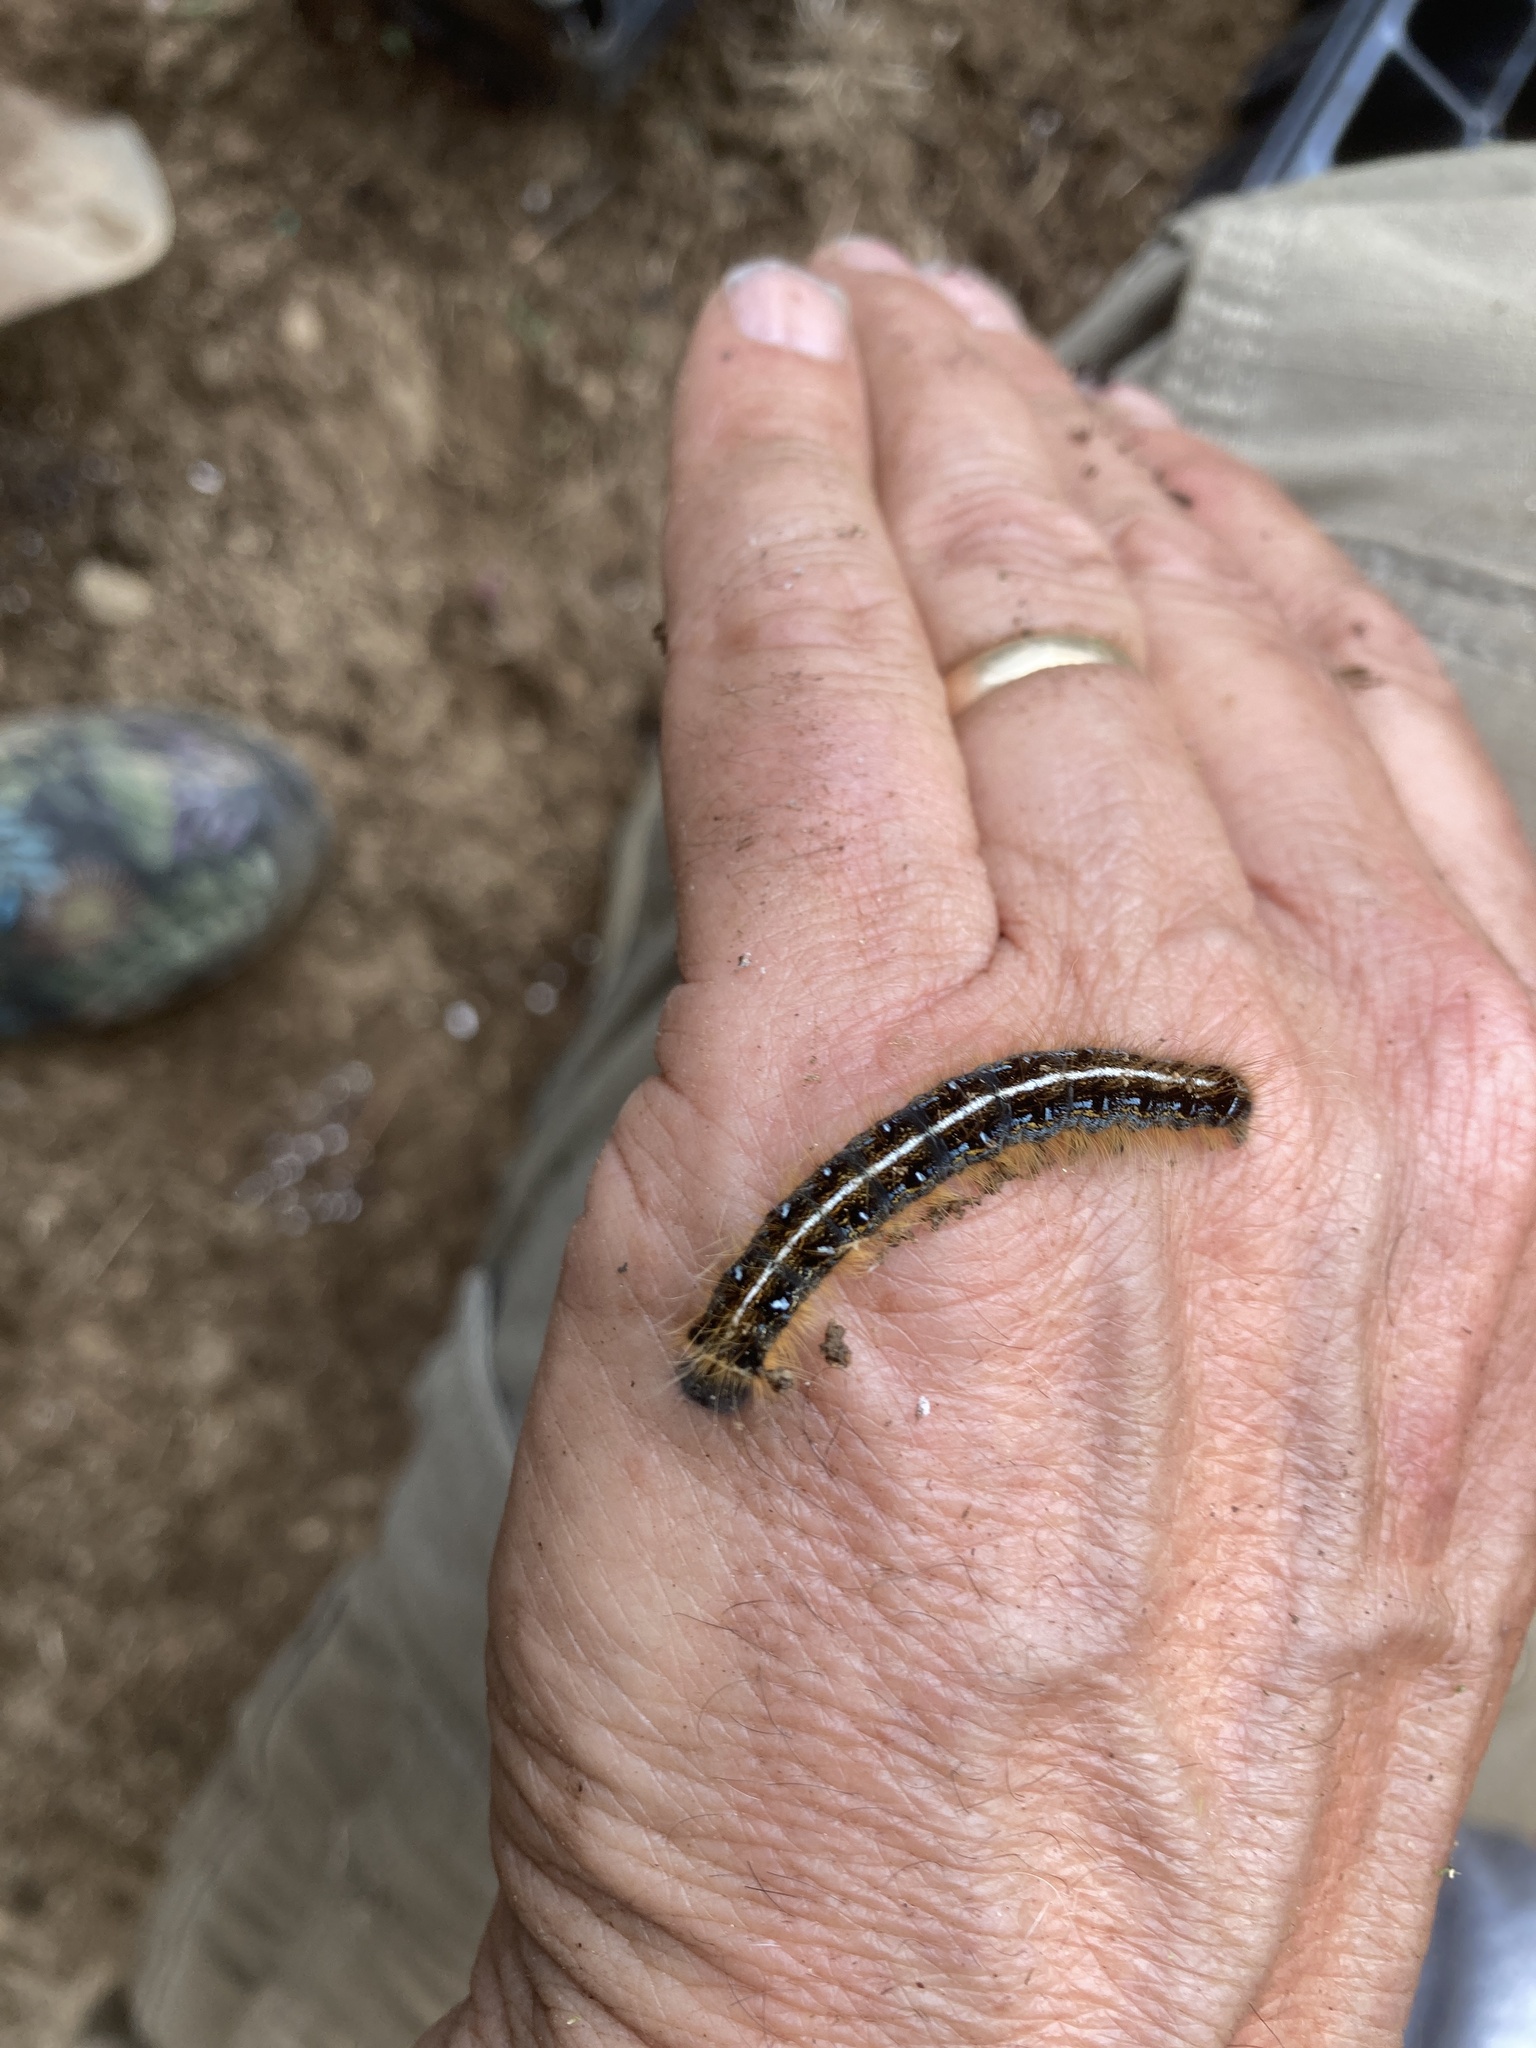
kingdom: Animalia
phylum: Arthropoda
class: Insecta
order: Lepidoptera
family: Lasiocampidae
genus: Malacosoma
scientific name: Malacosoma americana
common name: Eastern tent caterpillar moth
